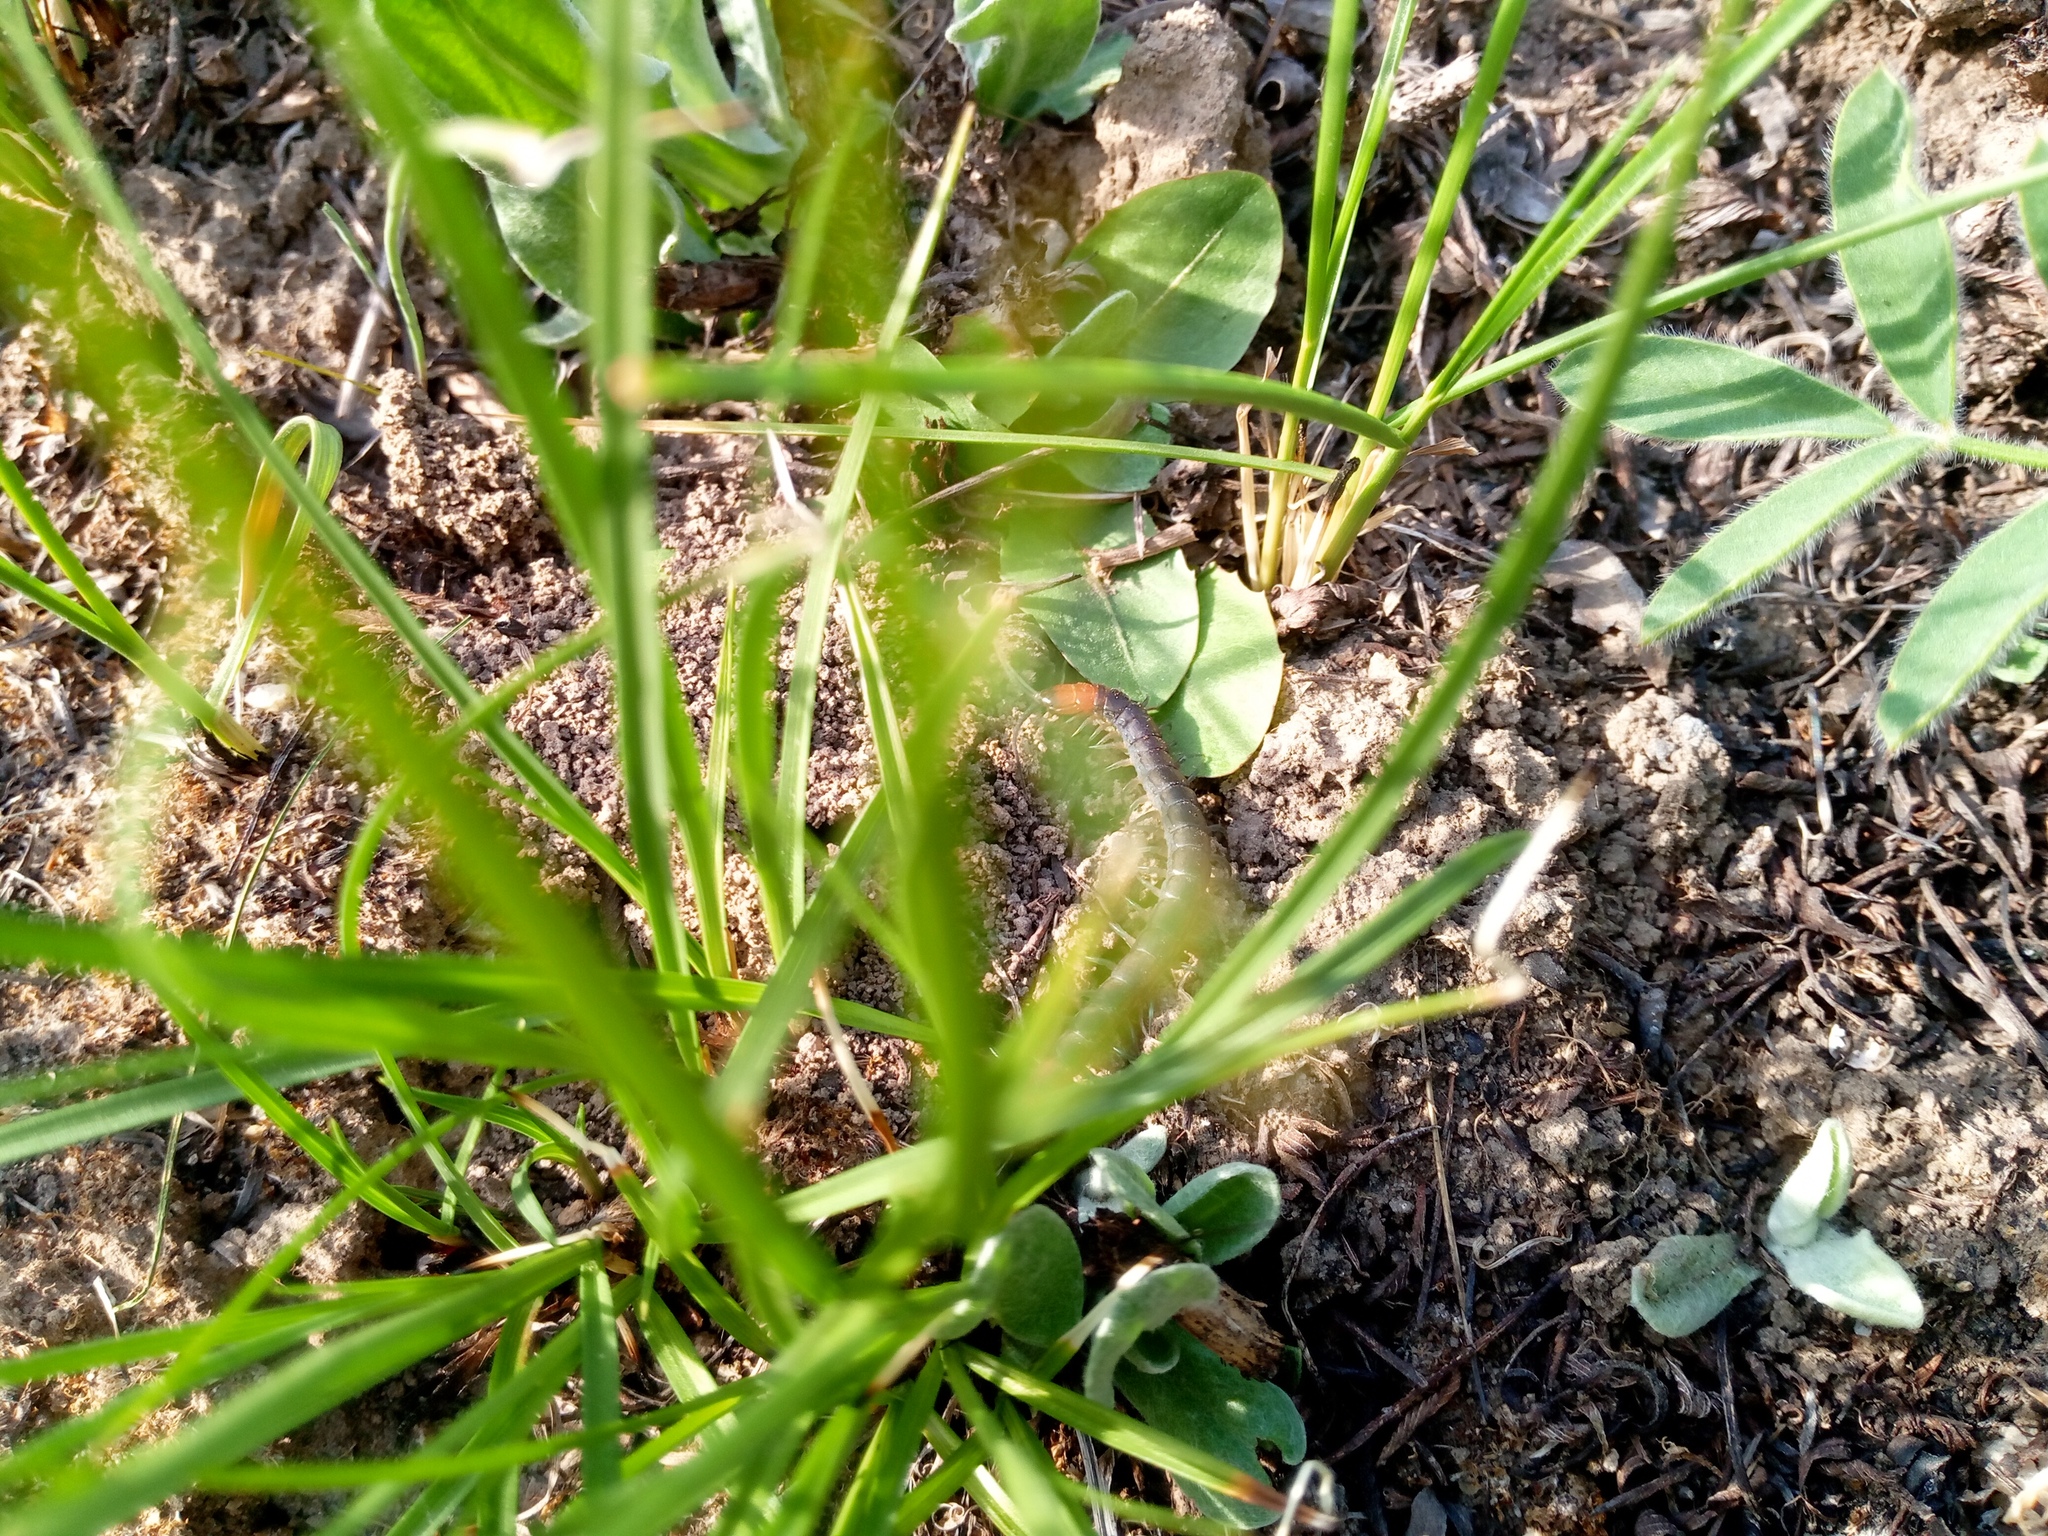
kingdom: Animalia
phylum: Arthropoda
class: Chilopoda
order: Scolopendromorpha
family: Scolopendridae
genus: Scolopendra
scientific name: Scolopendra cingulata
